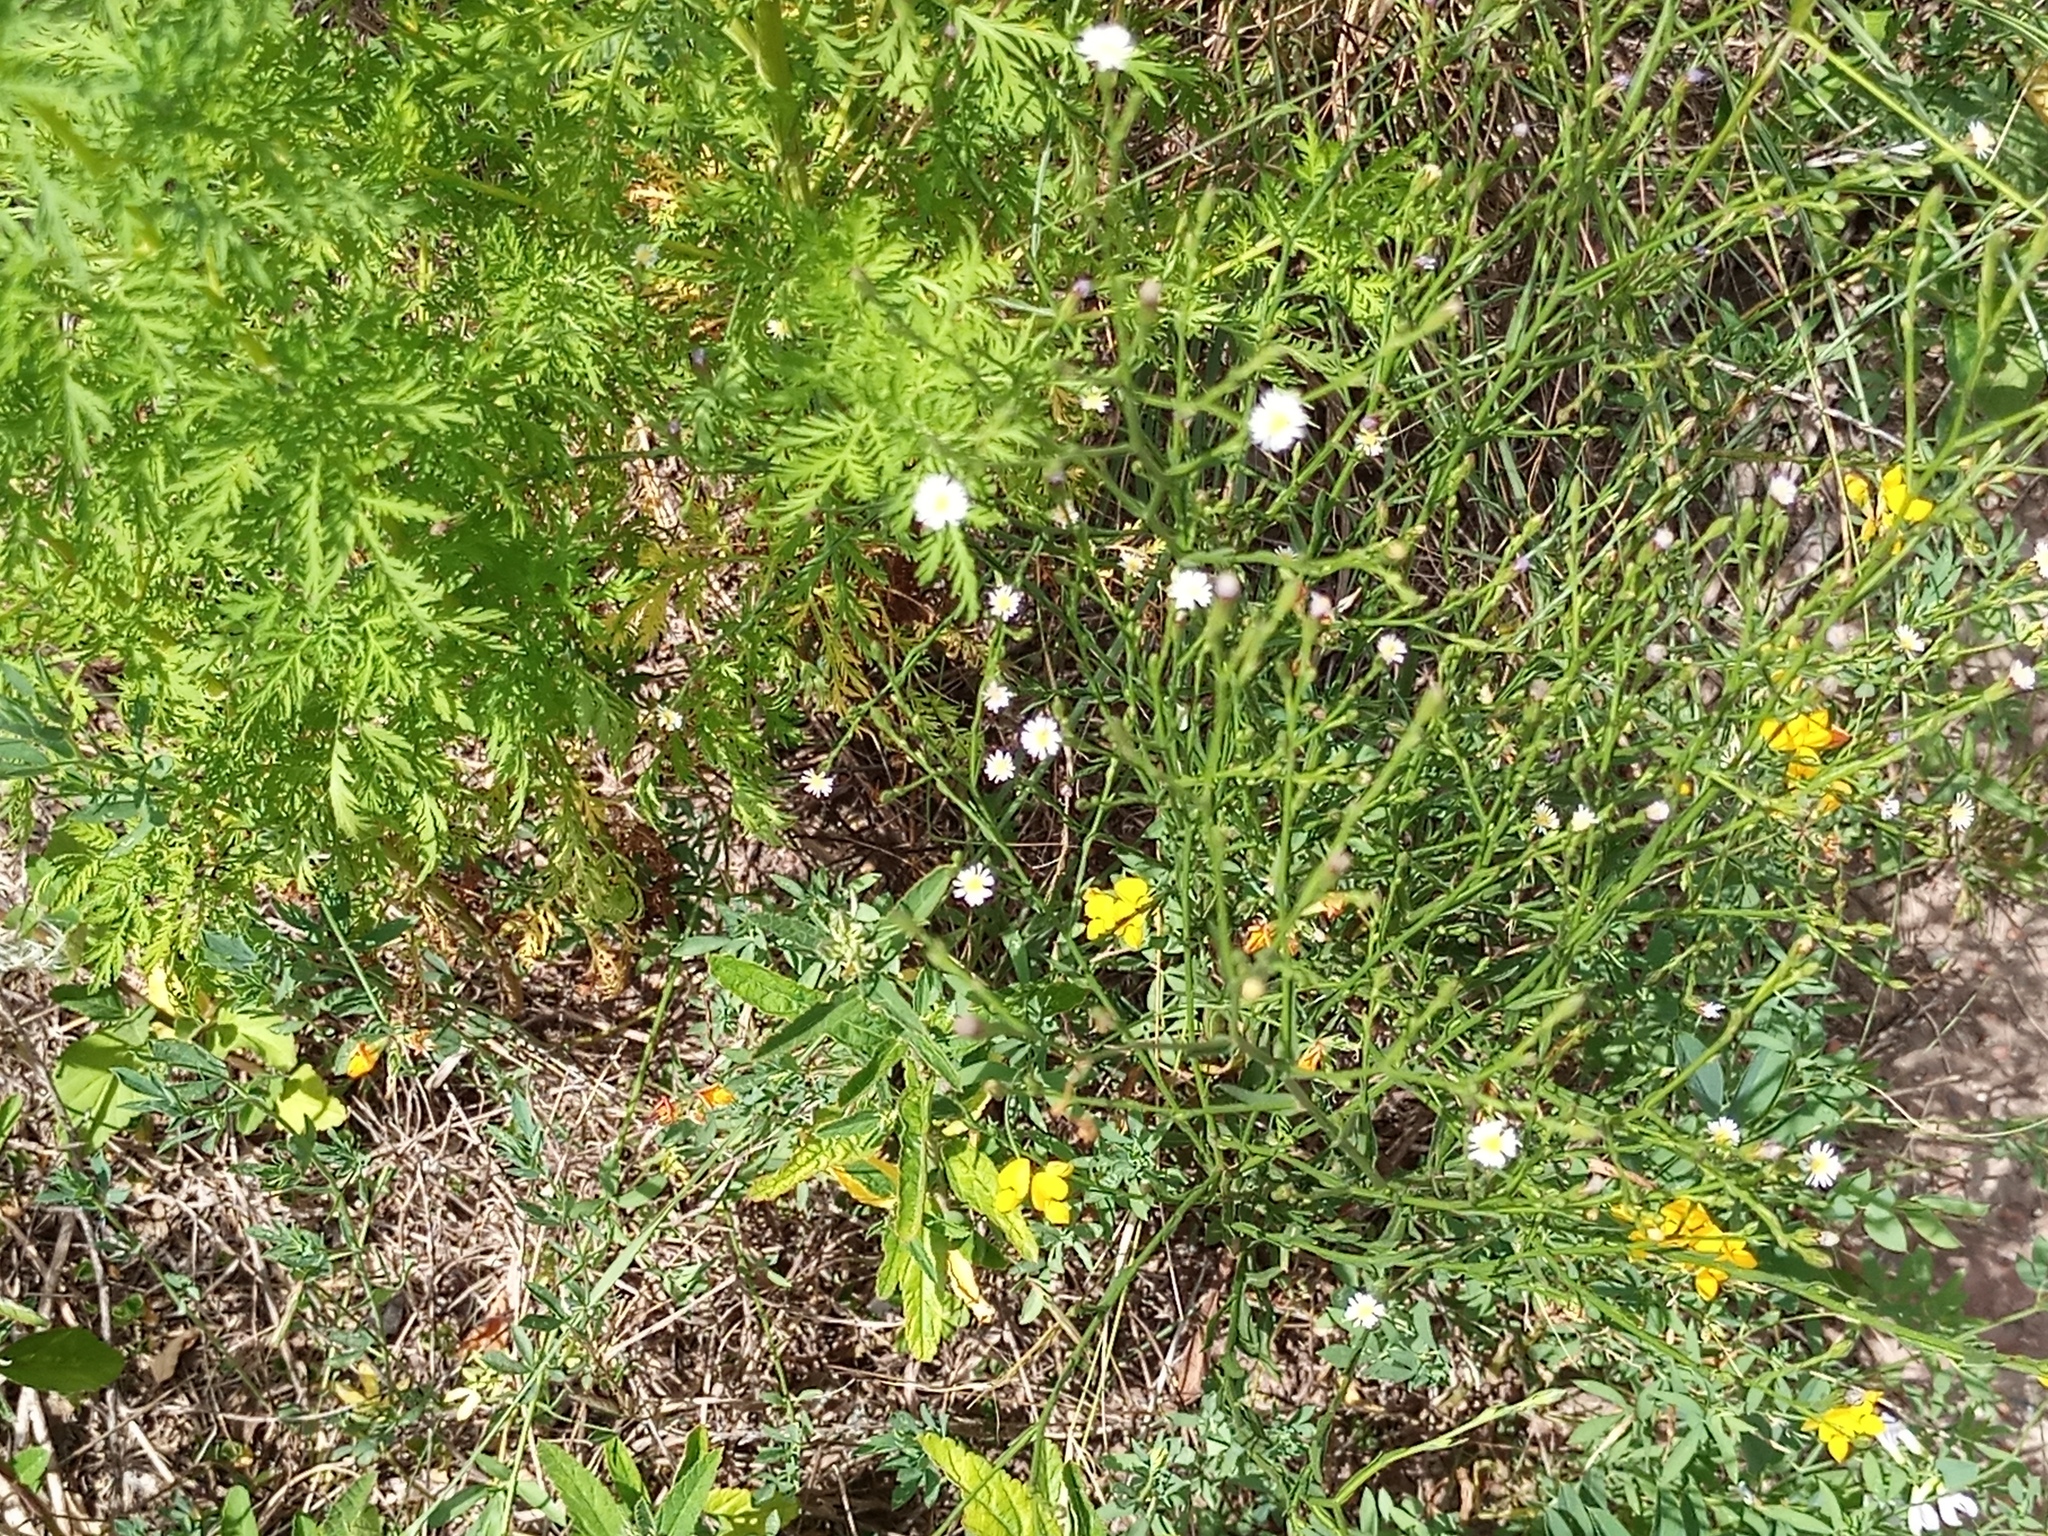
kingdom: Plantae
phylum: Tracheophyta
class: Magnoliopsida
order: Asterales
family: Asteraceae
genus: Symphyotrichum
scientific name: Symphyotrichum squamatum
